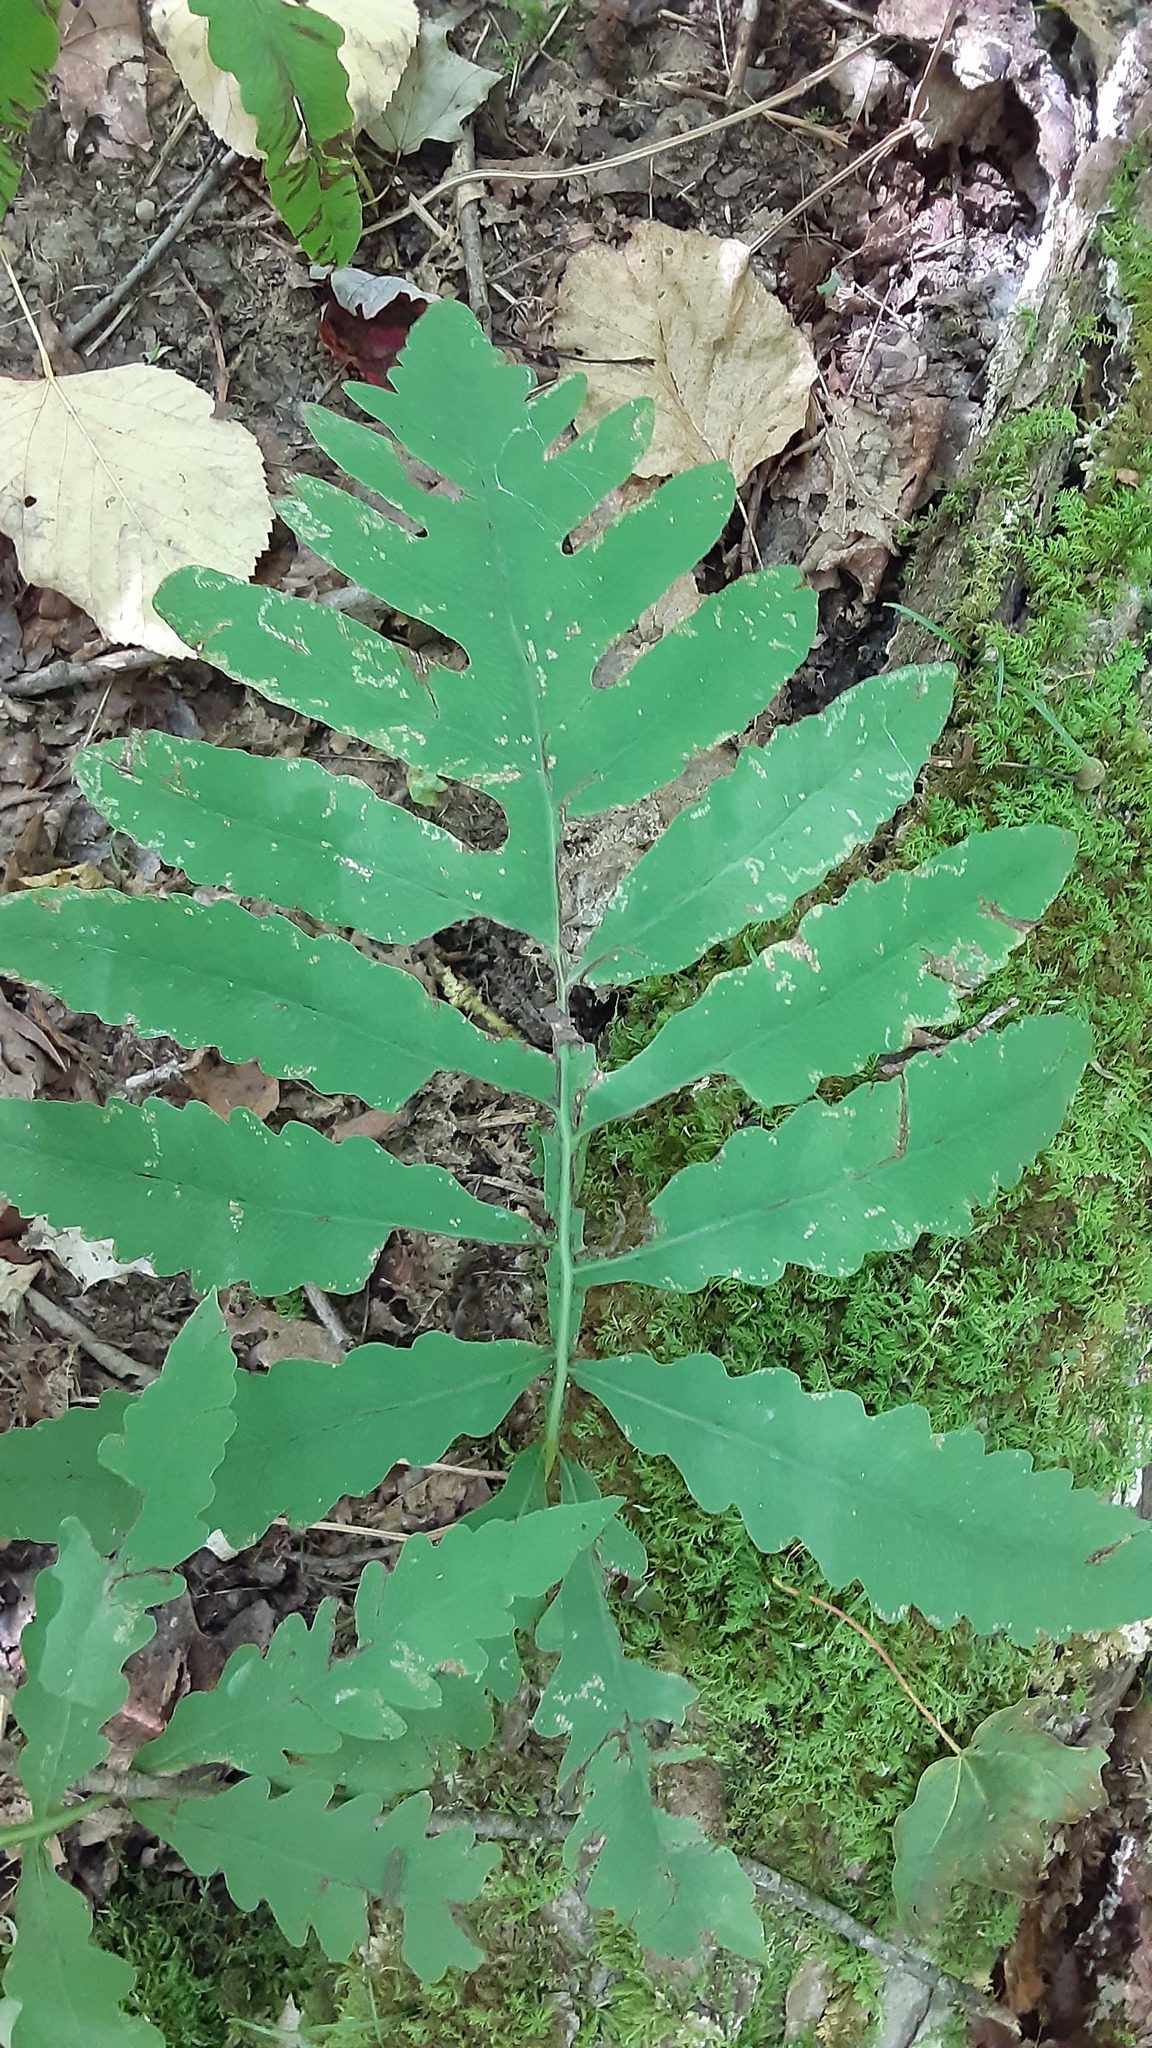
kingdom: Plantae
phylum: Tracheophyta
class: Polypodiopsida
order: Polypodiales
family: Onocleaceae
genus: Onoclea
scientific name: Onoclea sensibilis
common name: Sensitive fern
